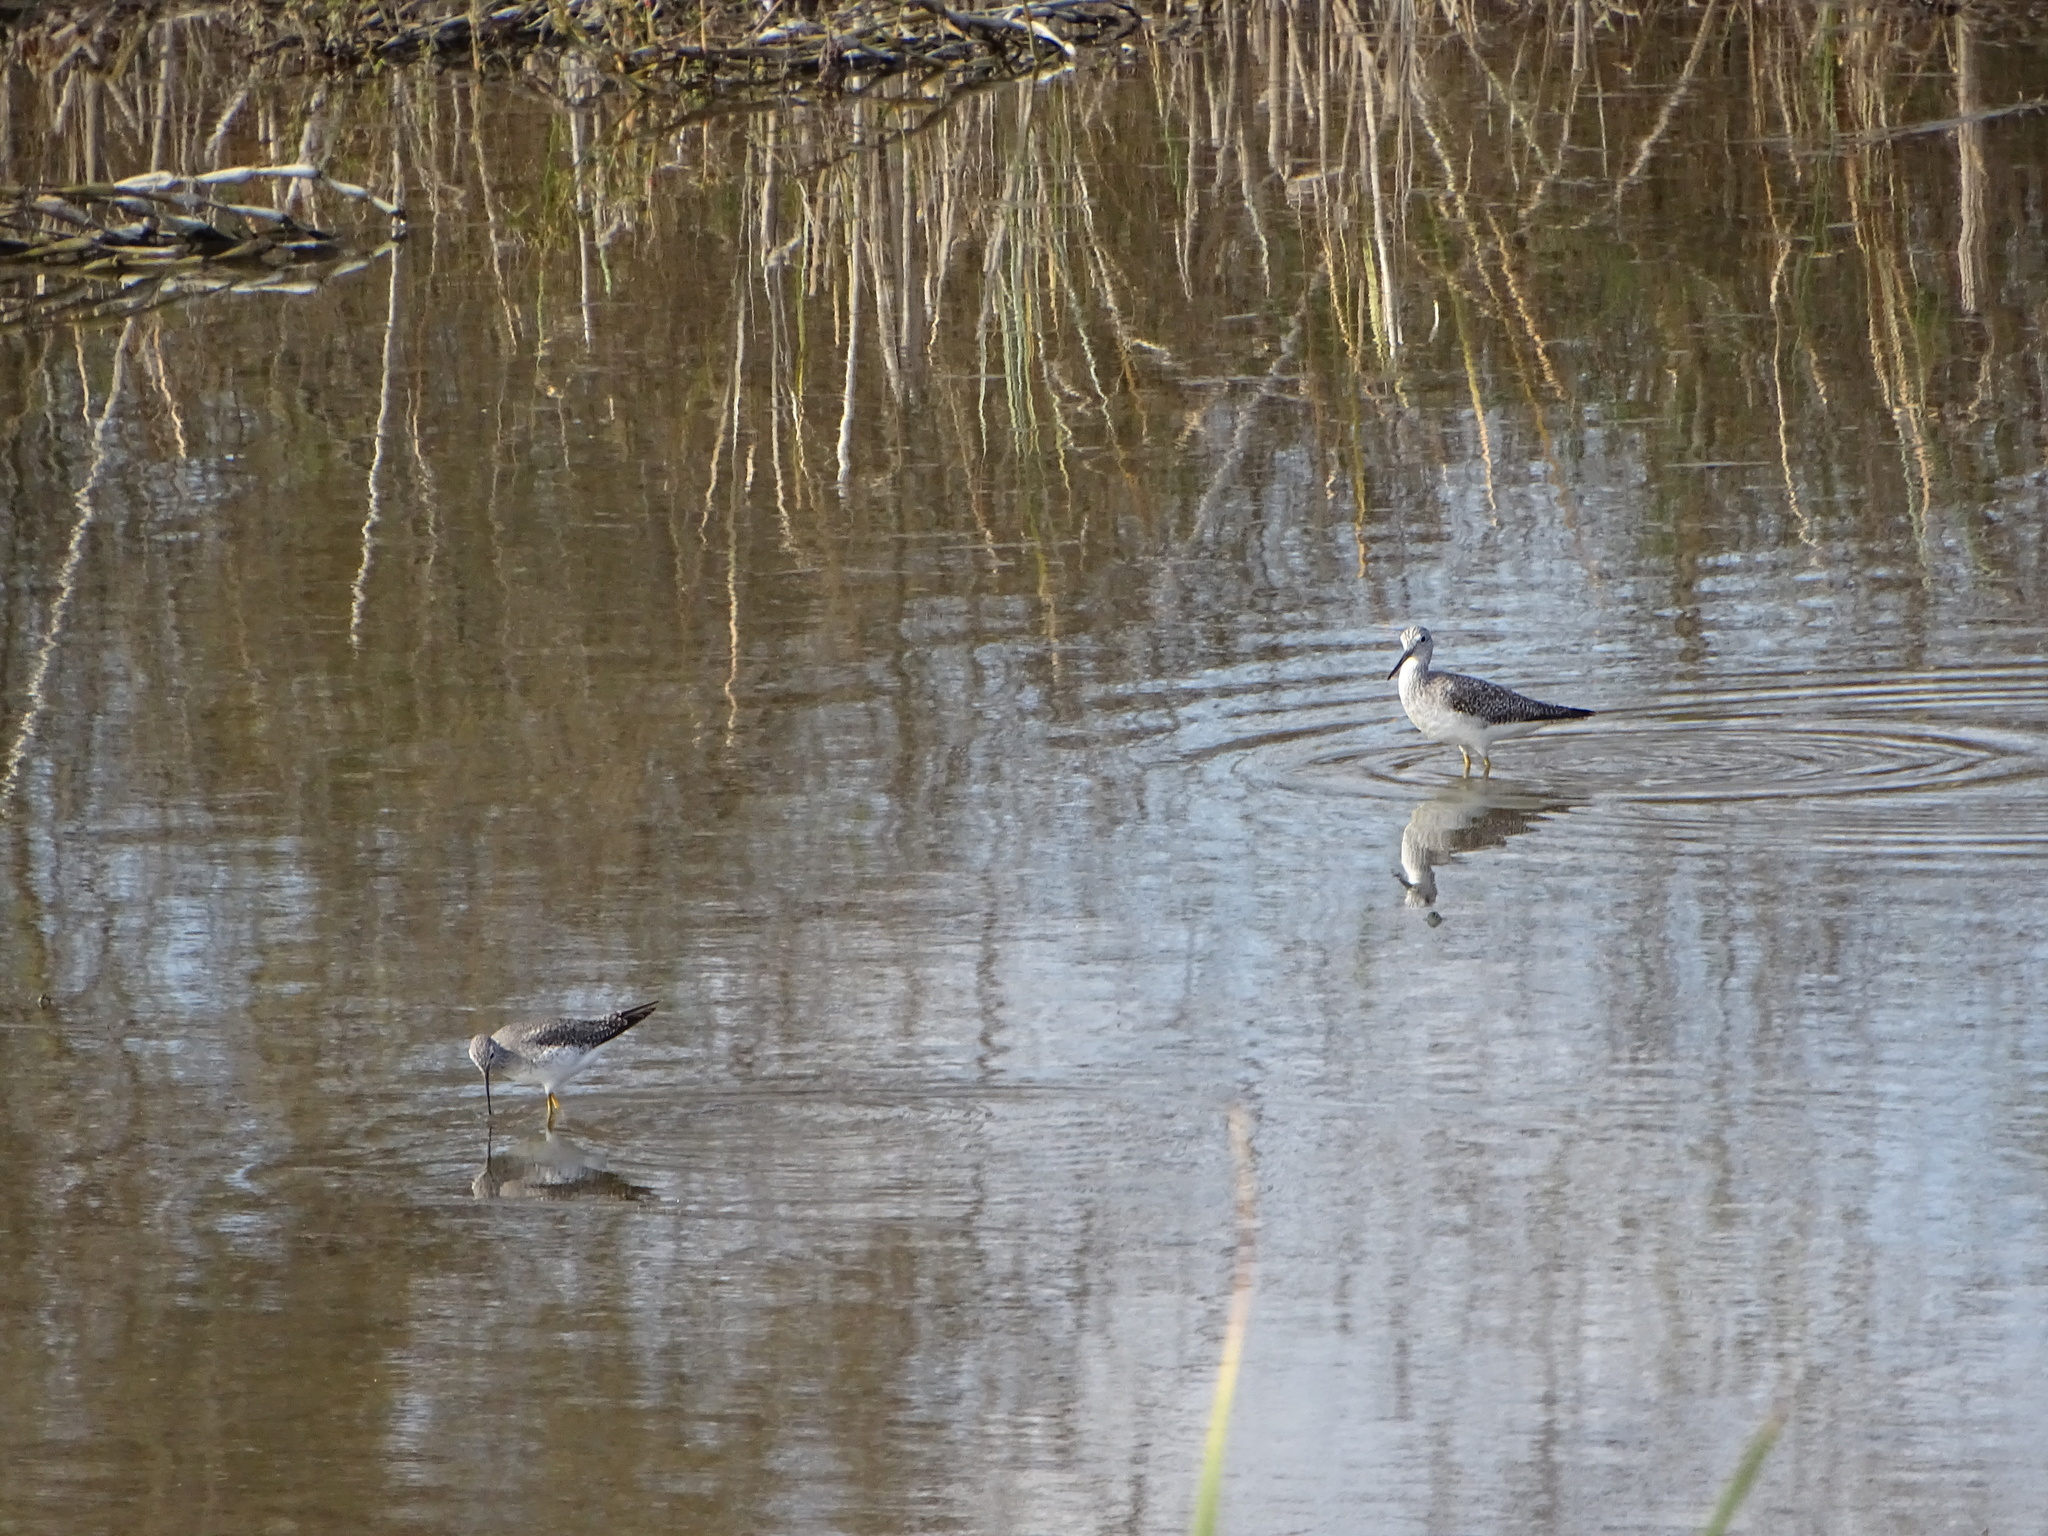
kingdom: Animalia
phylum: Chordata
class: Aves
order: Charadriiformes
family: Scolopacidae
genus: Tringa
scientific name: Tringa flavipes
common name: Lesser yellowlegs
